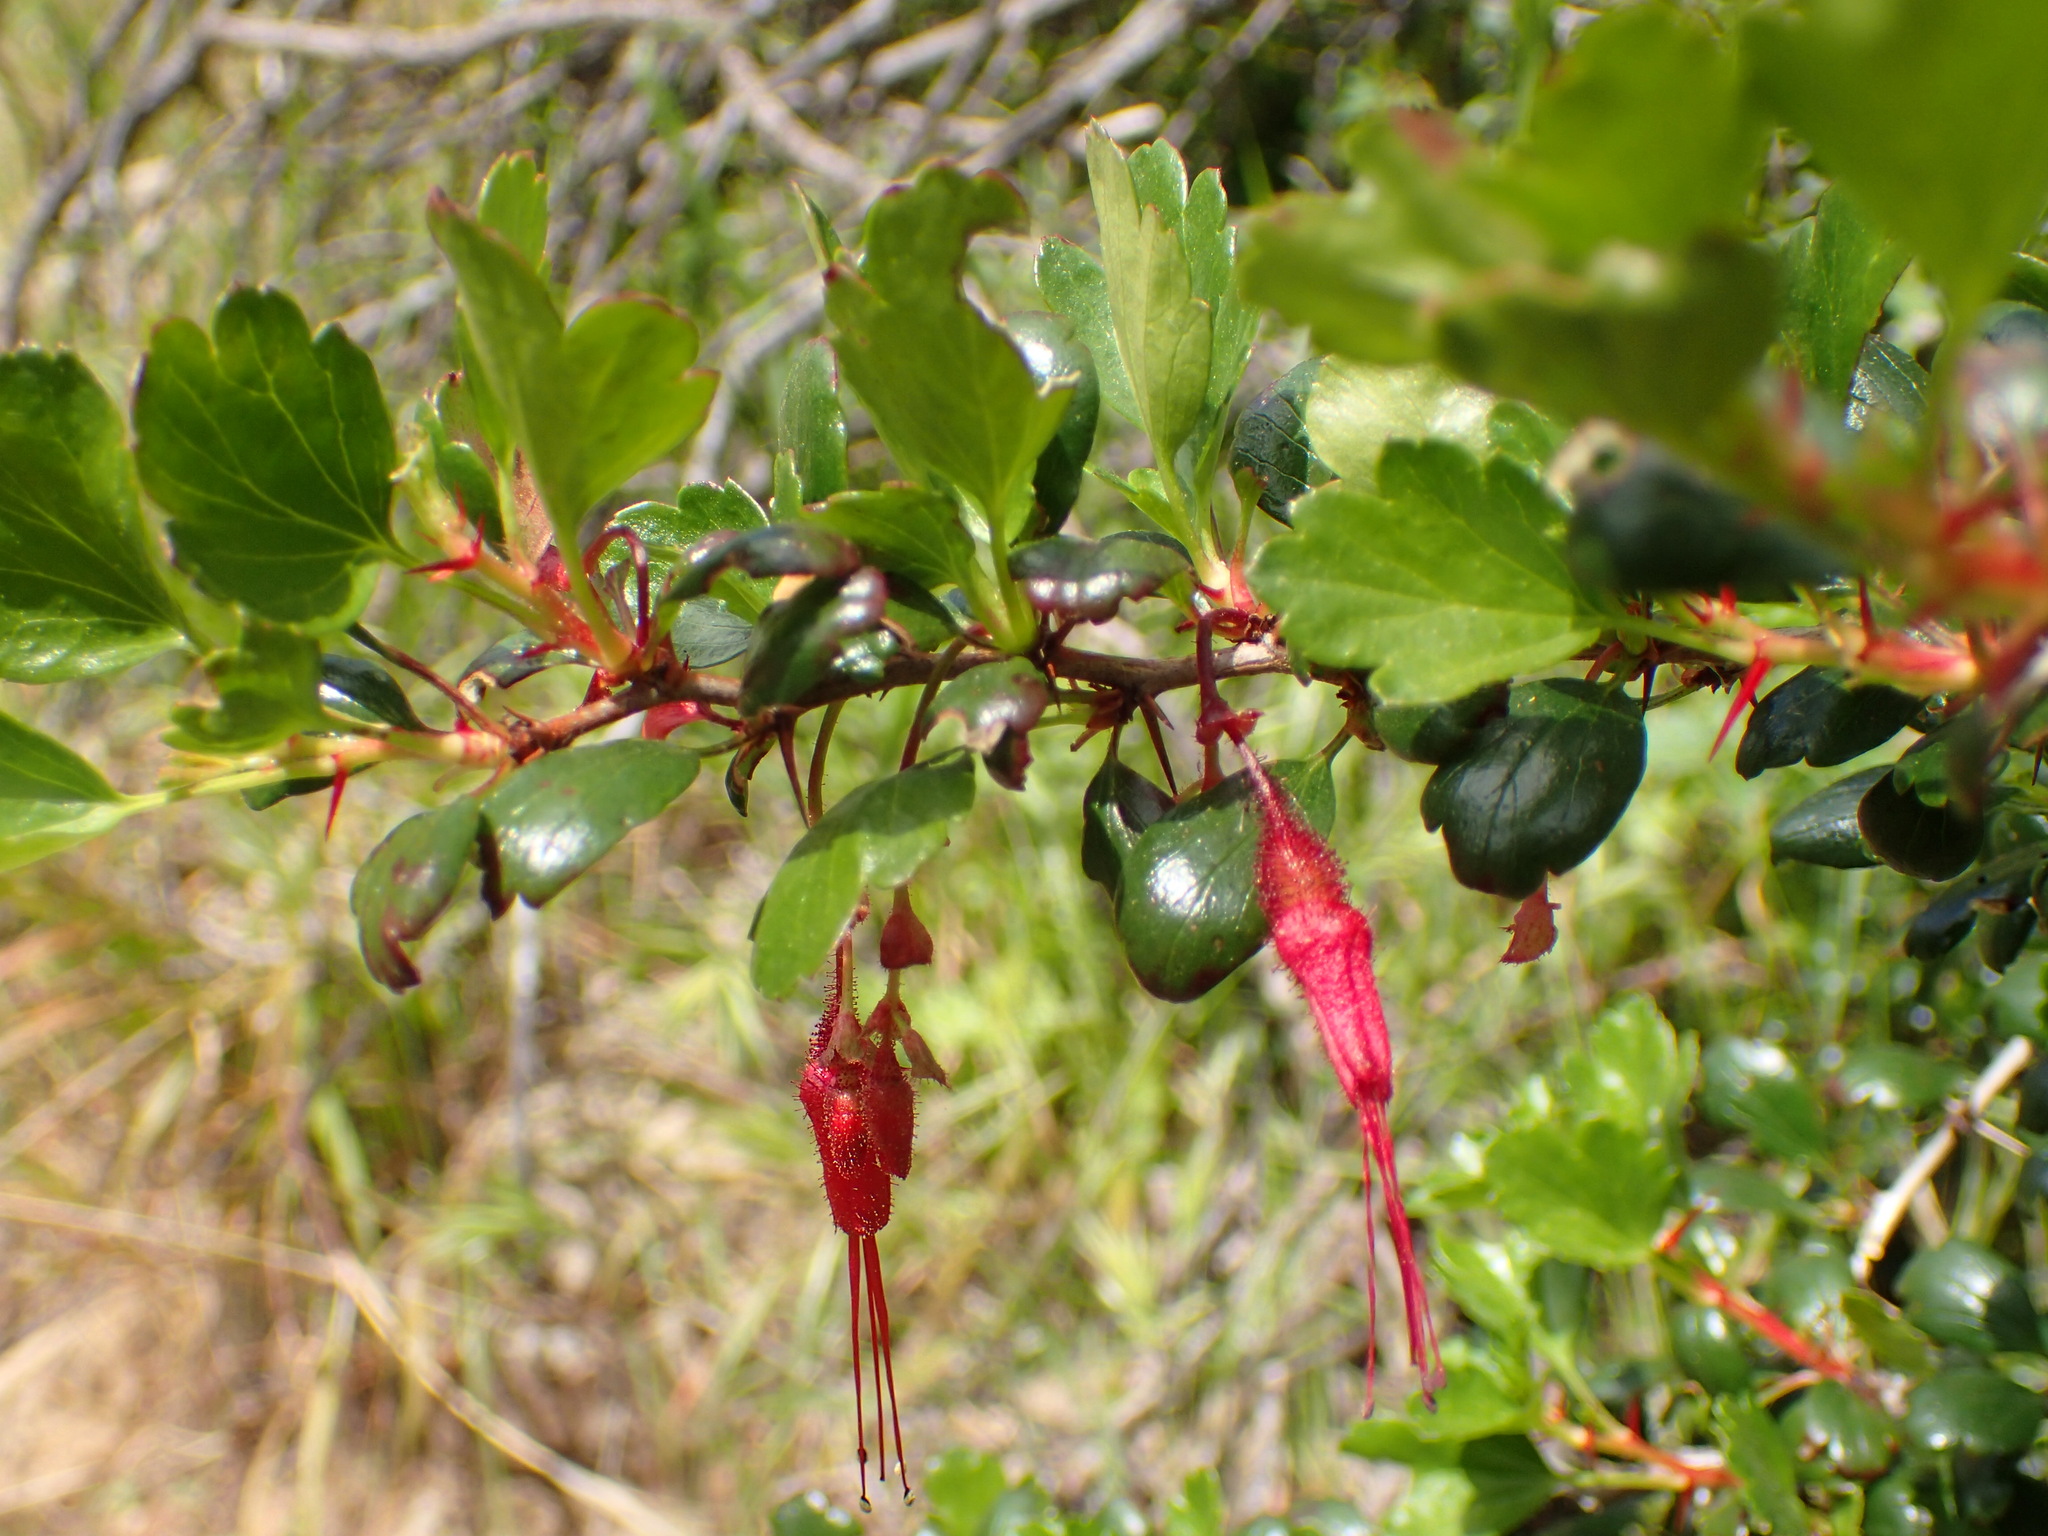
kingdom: Plantae
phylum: Tracheophyta
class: Magnoliopsida
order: Saxifragales
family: Grossulariaceae
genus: Ribes
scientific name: Ribes speciosum
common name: Fuchsia-flower gooseberry
